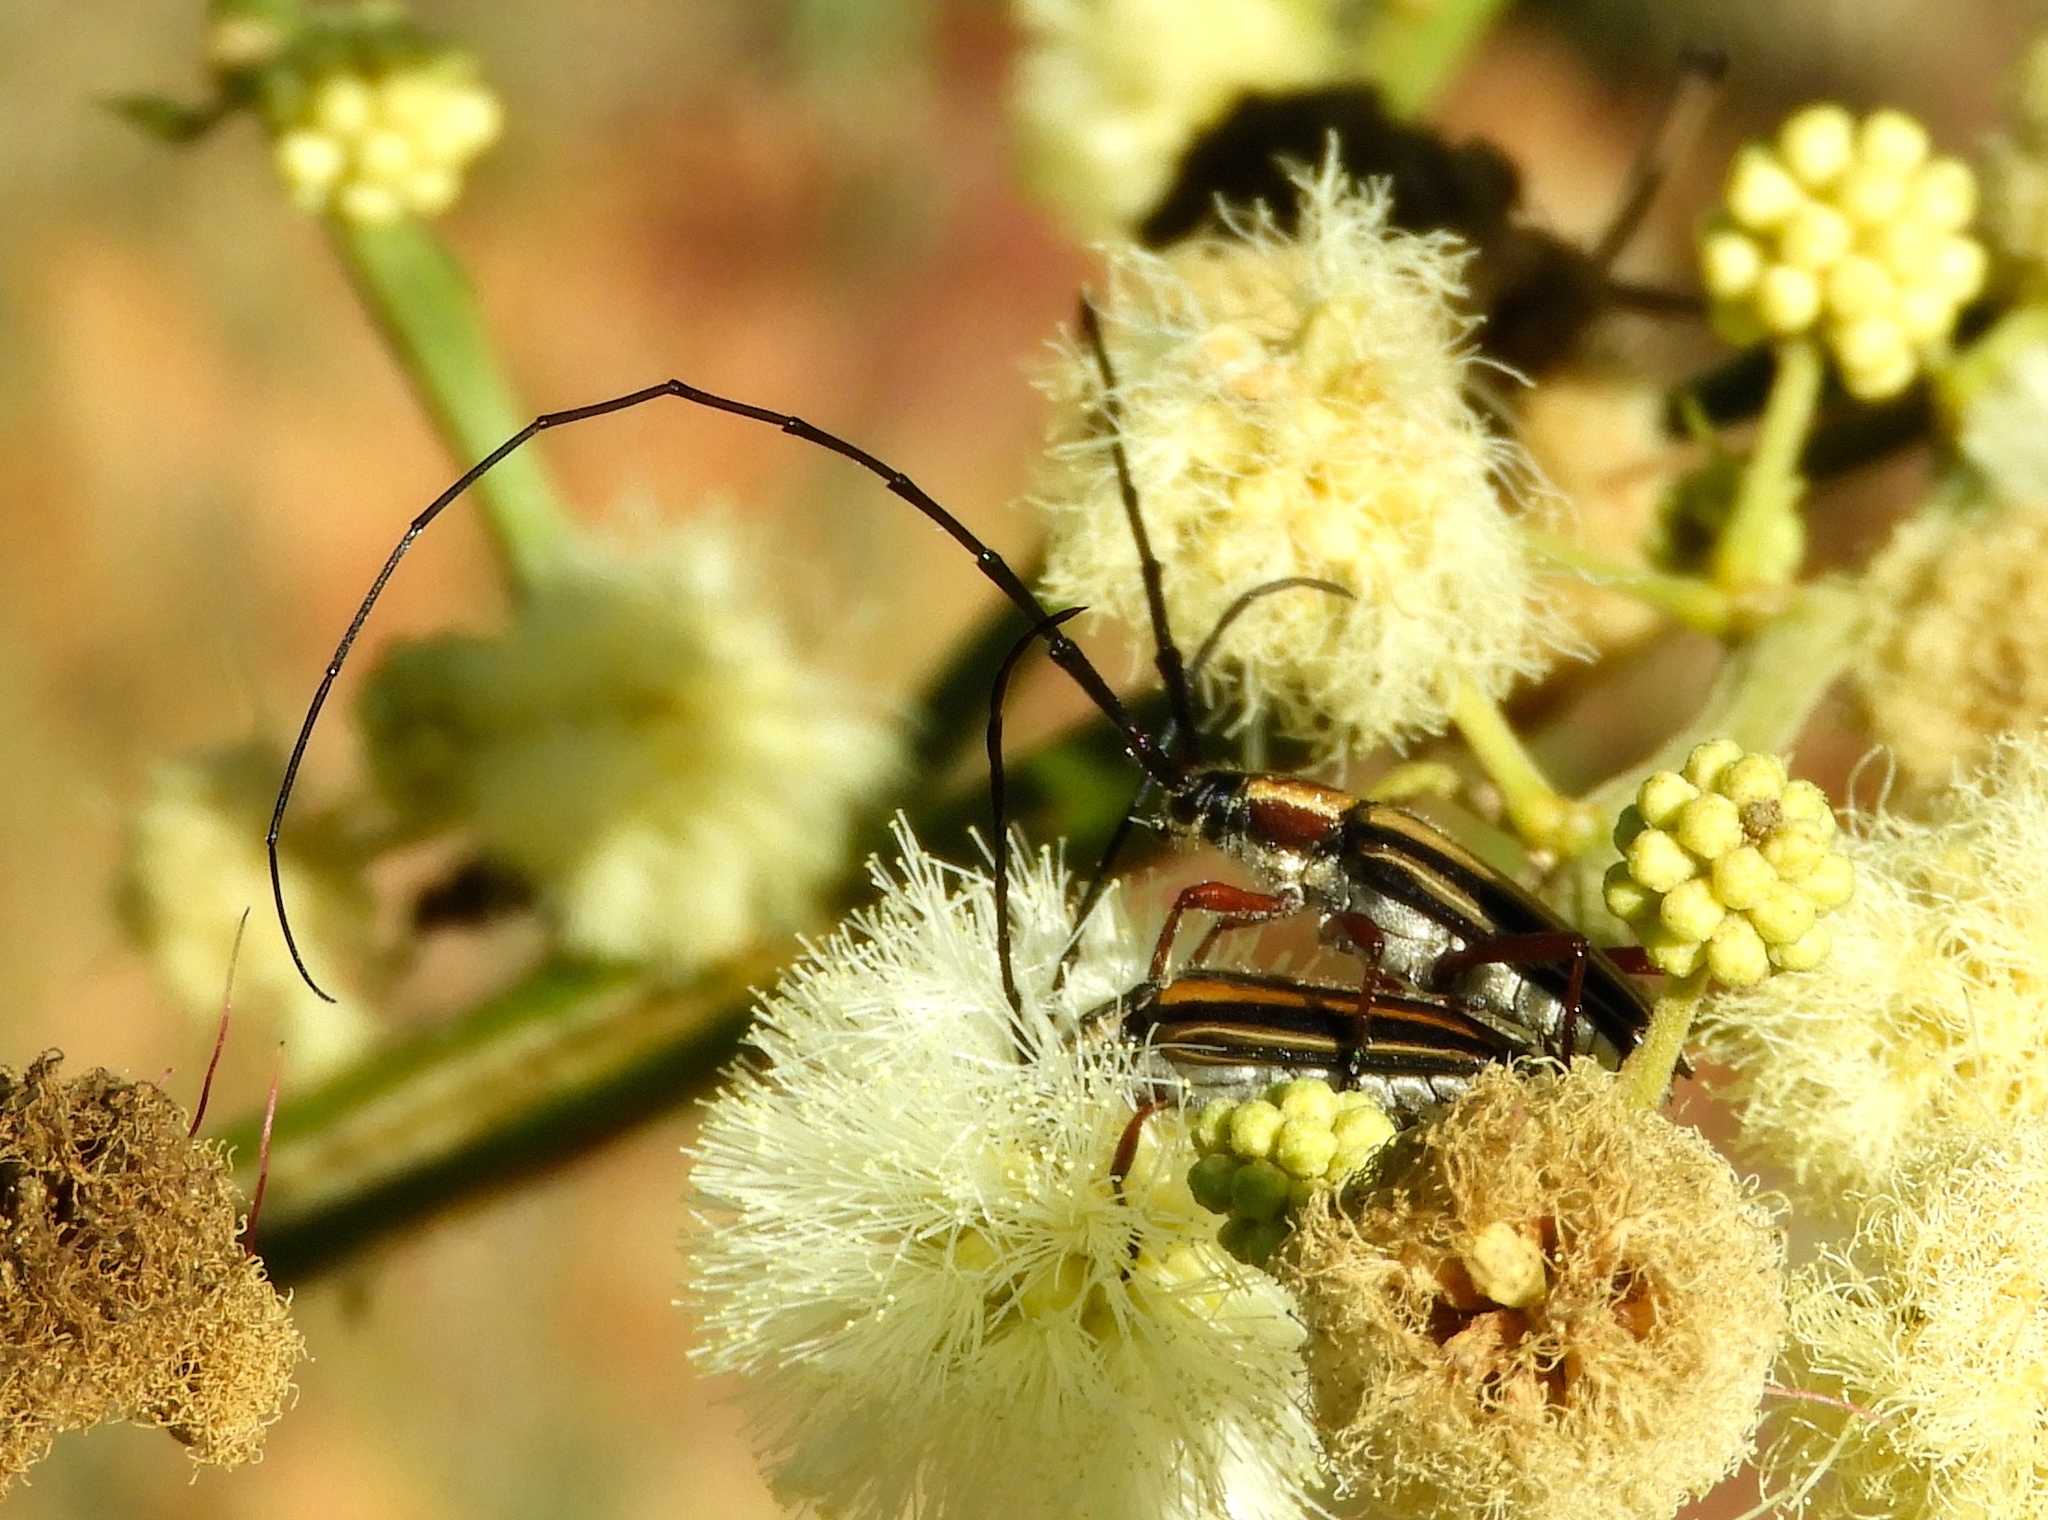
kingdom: Animalia
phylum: Arthropoda
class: Insecta
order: Coleoptera
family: Cerambycidae
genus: Sphaenothecus
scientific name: Sphaenothecus bilineatus
